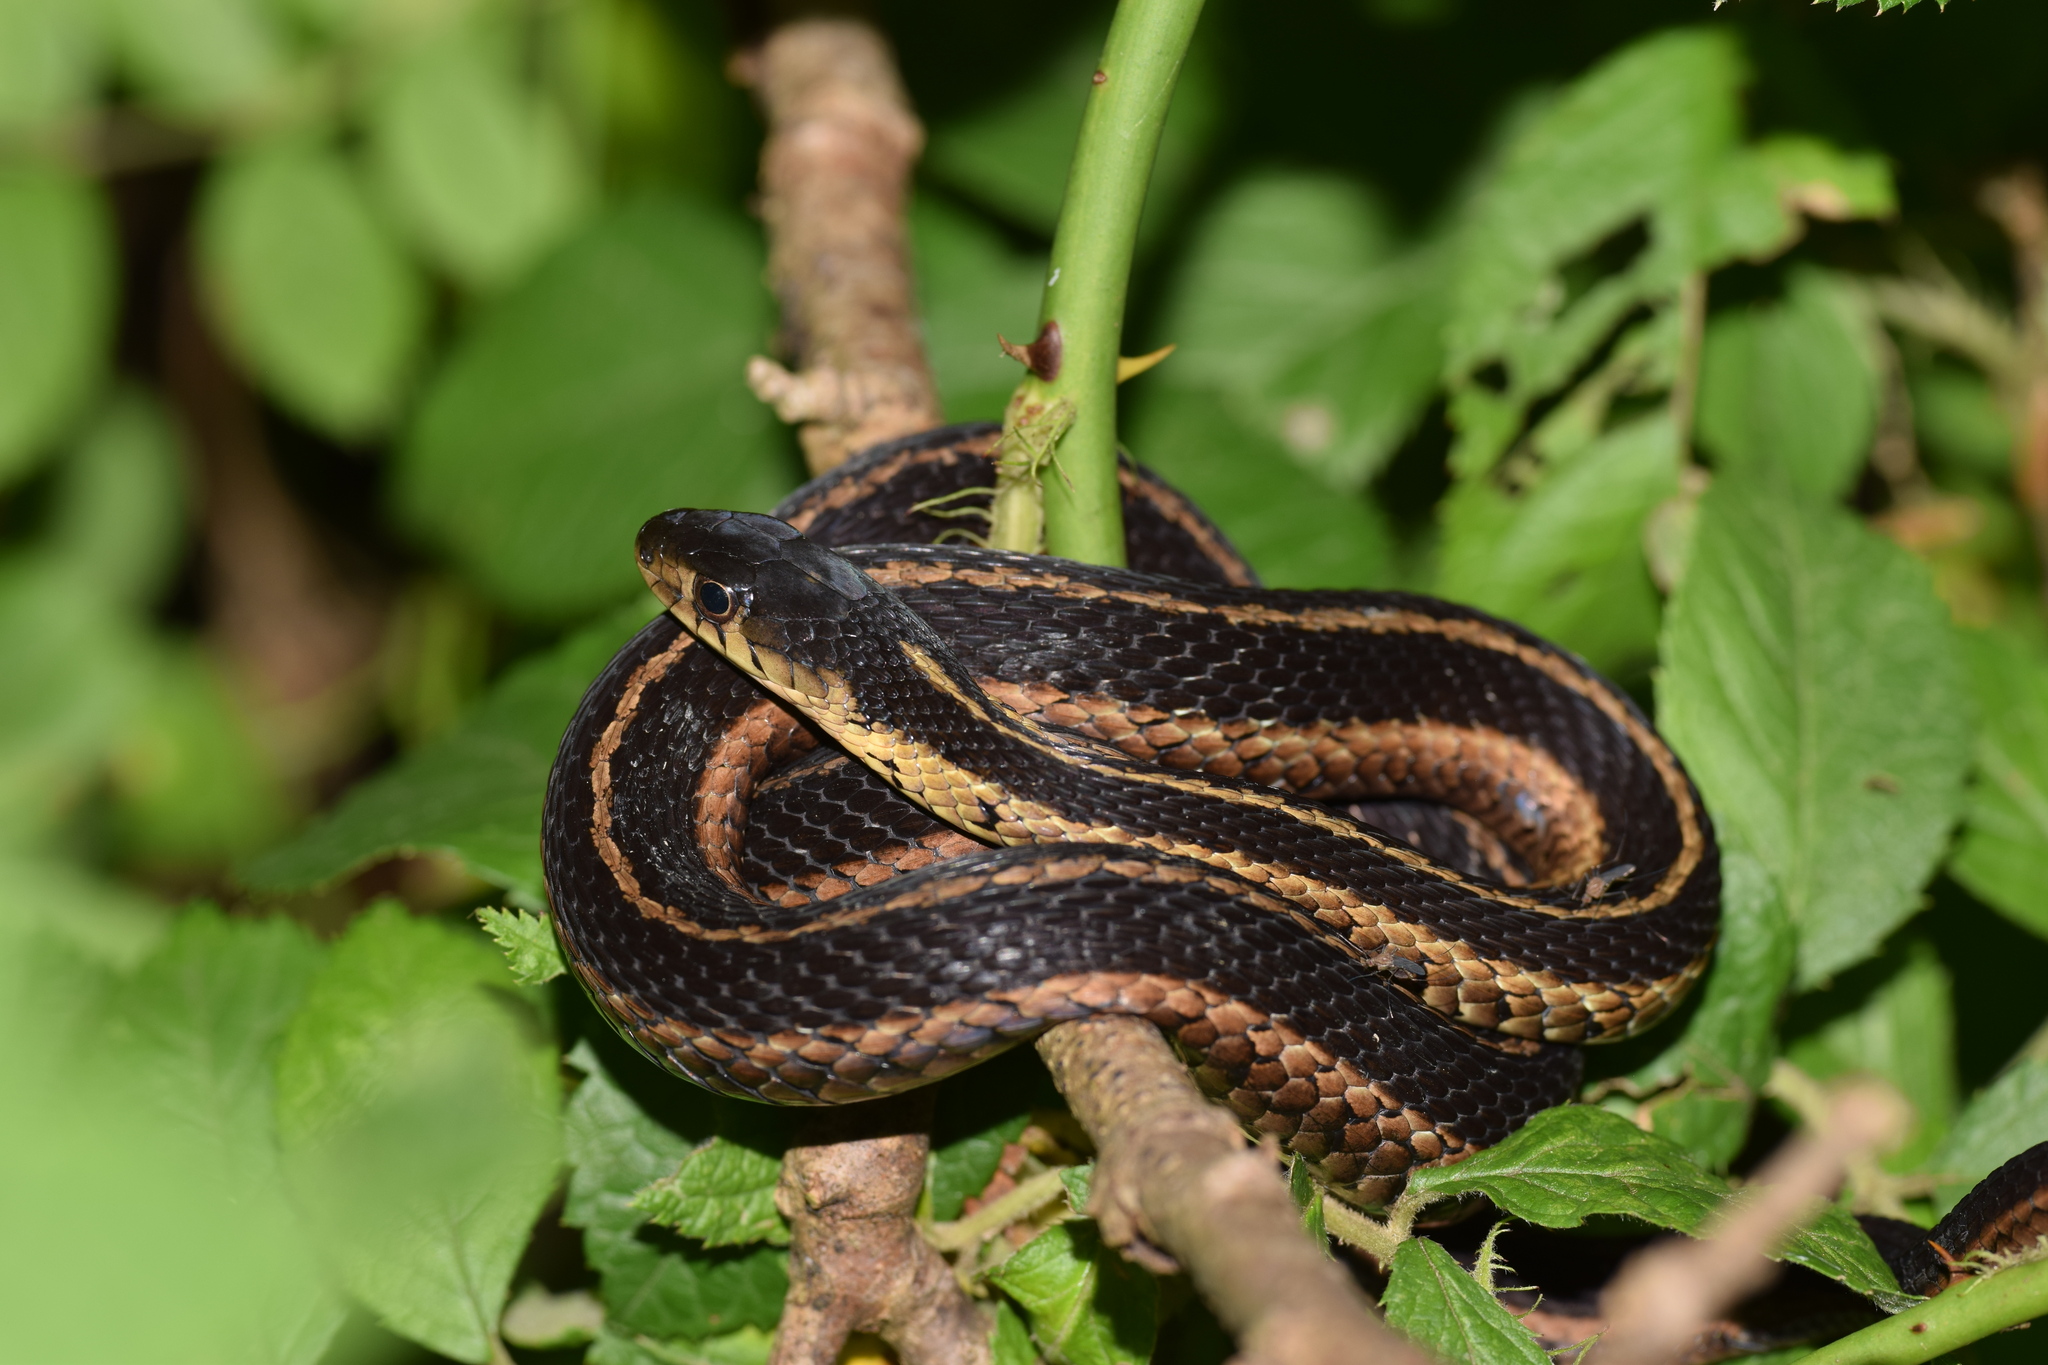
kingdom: Animalia
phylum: Chordata
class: Squamata
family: Colubridae
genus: Thamnophis
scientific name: Thamnophis sirtalis
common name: Common garter snake
